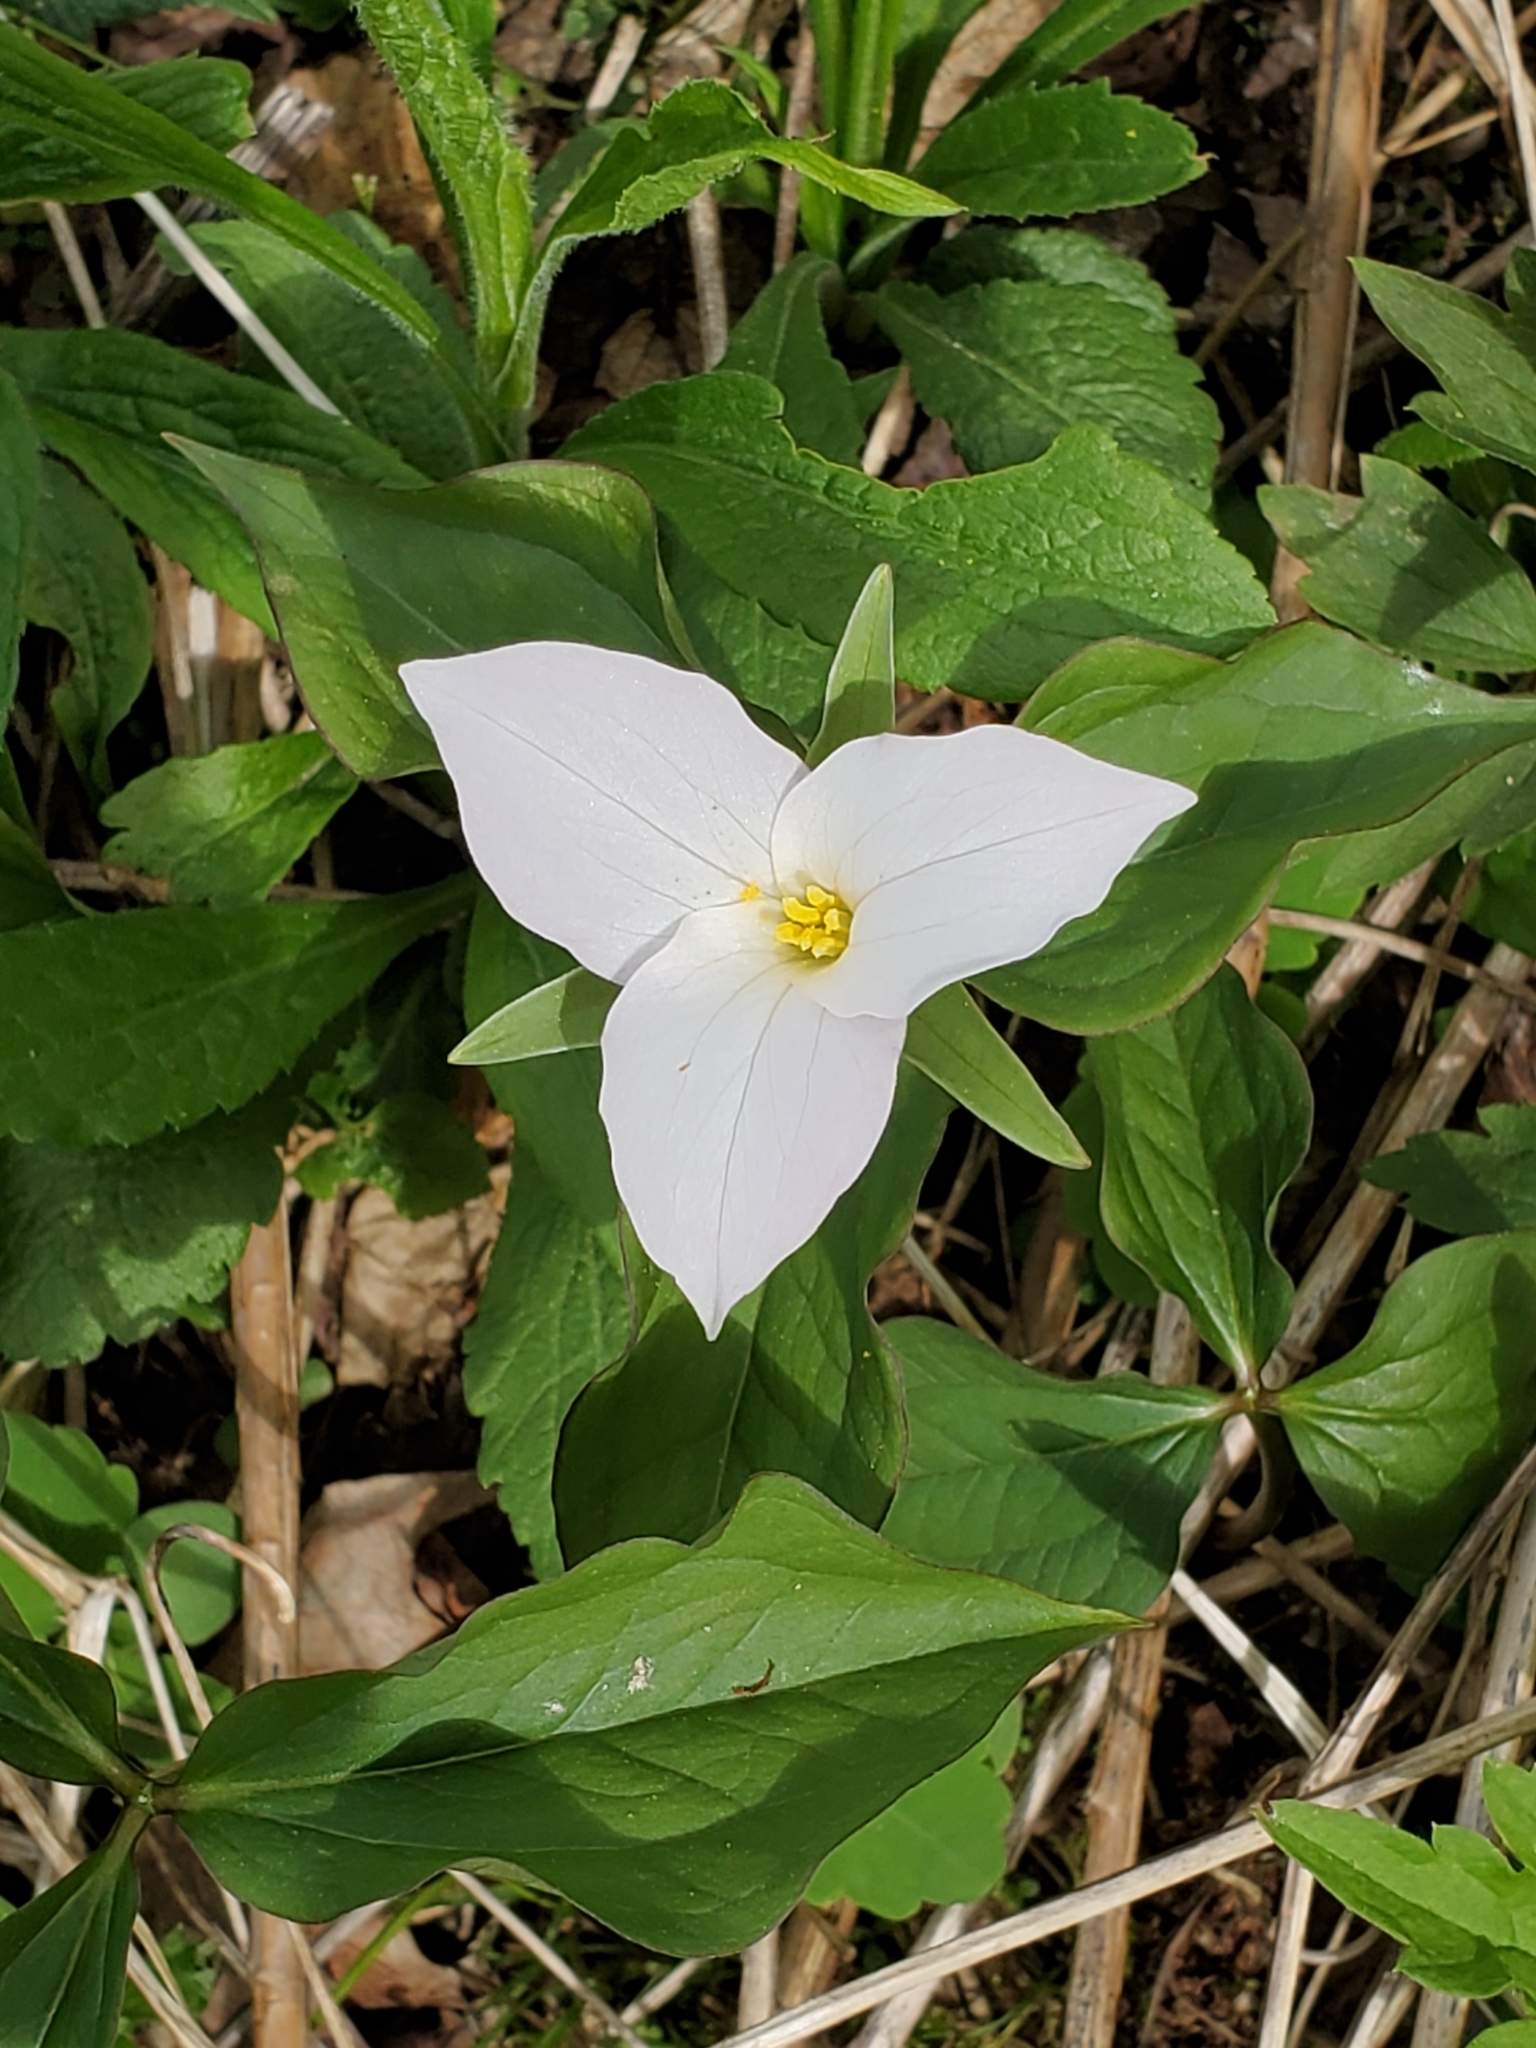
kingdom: Plantae
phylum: Tracheophyta
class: Liliopsida
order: Liliales
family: Melanthiaceae
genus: Trillium
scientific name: Trillium grandiflorum
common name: Great white trillium
